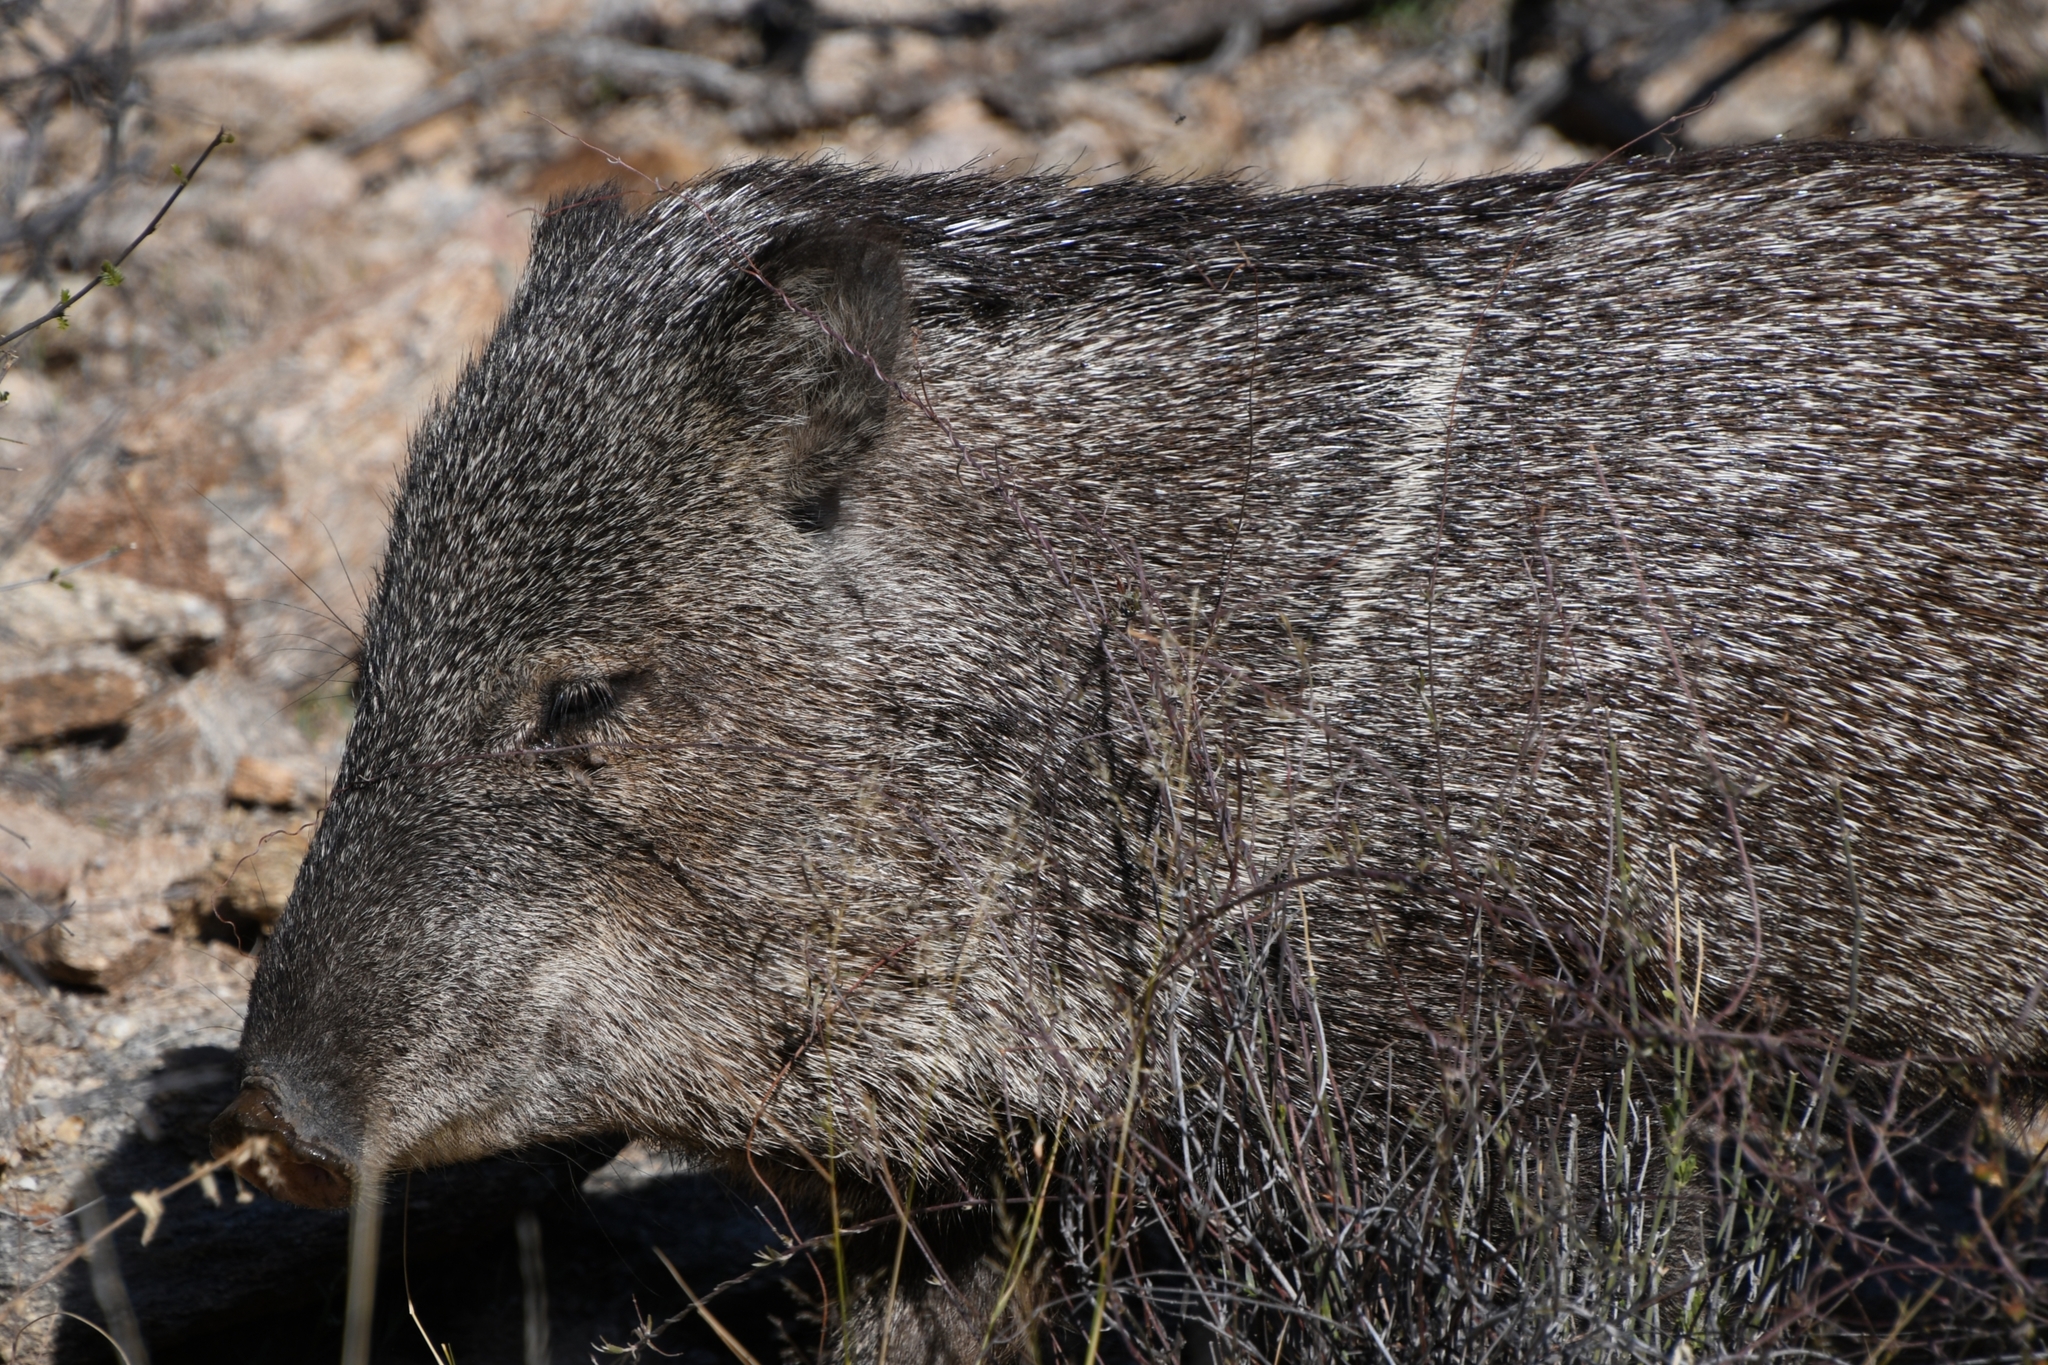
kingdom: Animalia
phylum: Chordata
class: Mammalia
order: Artiodactyla
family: Tayassuidae
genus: Pecari
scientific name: Pecari tajacu
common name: Collared peccary
